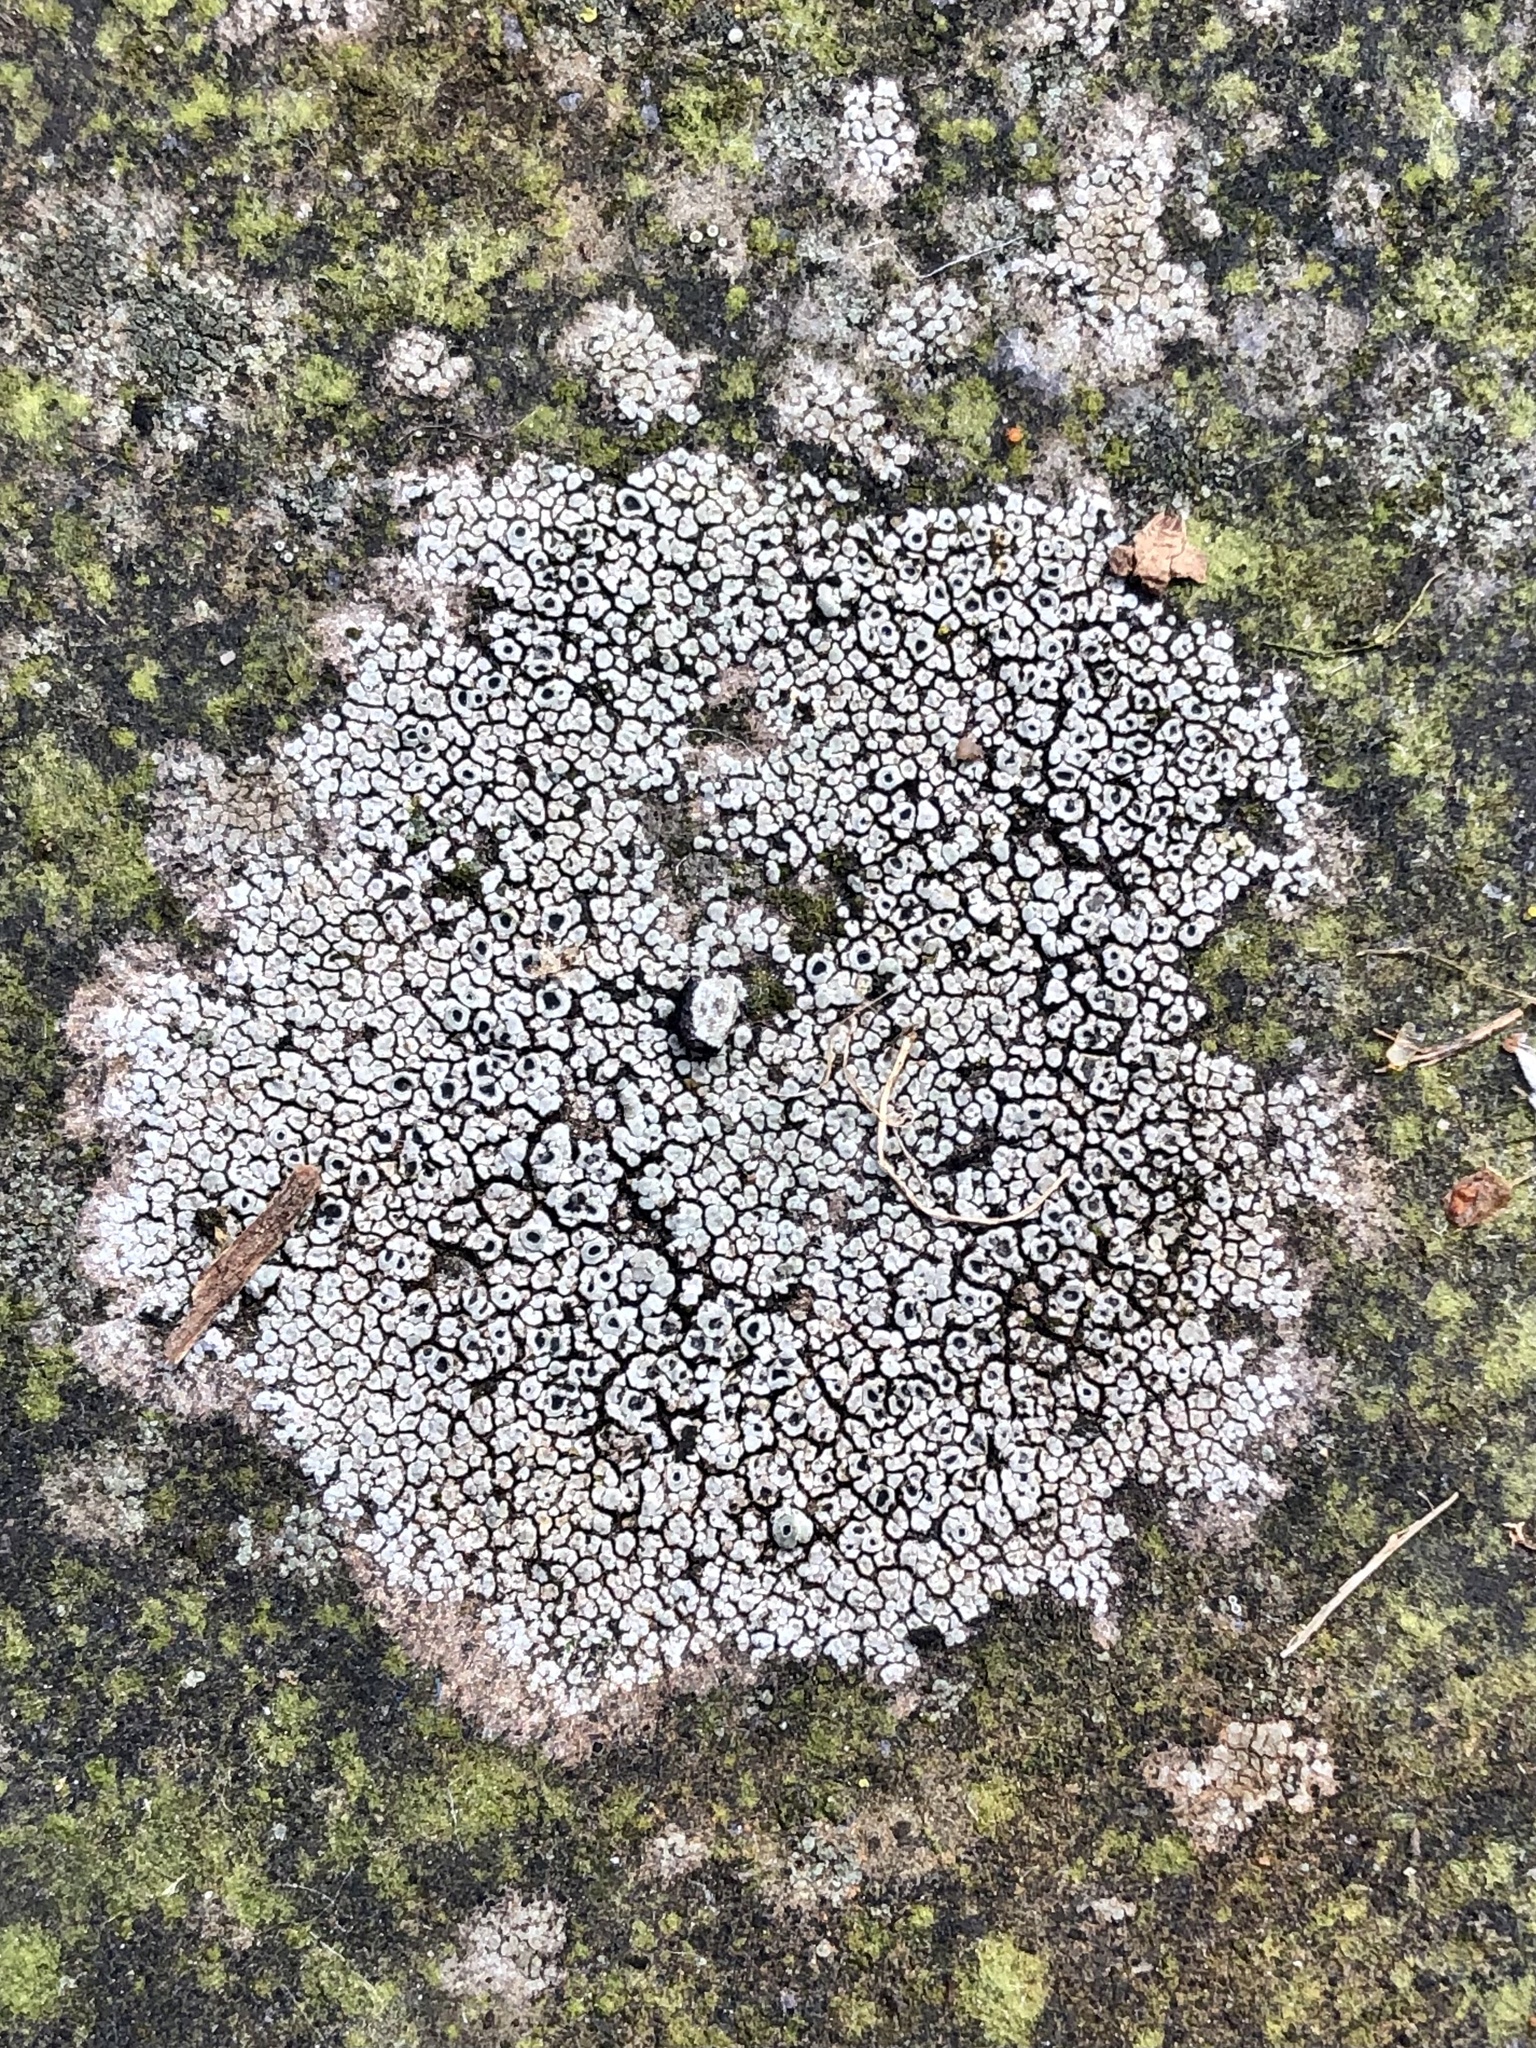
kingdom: Fungi
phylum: Ascomycota
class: Lecanoromycetes
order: Pertusariales
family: Megasporaceae
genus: Circinaria
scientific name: Circinaria contorta
